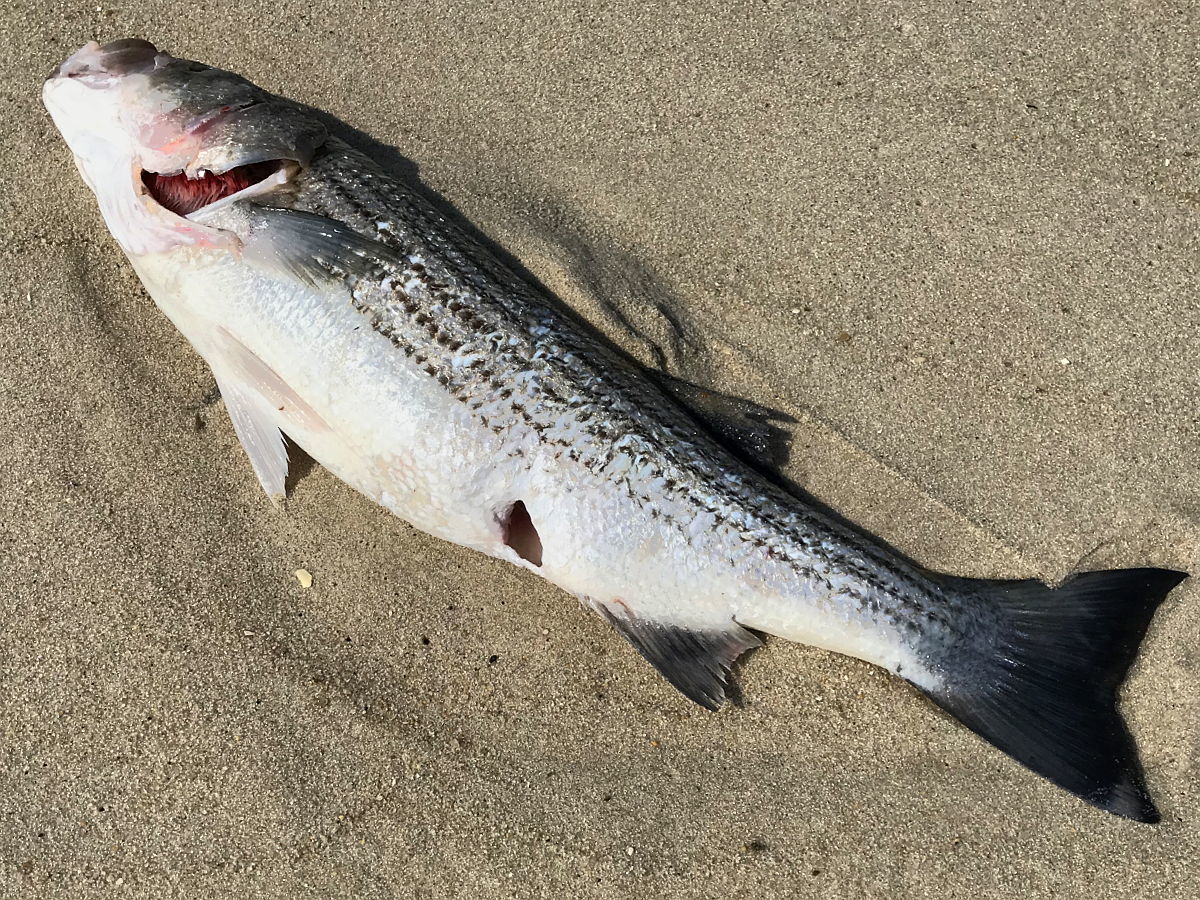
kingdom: Animalia
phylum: Chordata
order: Perciformes
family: Moronidae
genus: Morone
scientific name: Morone saxatilis
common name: Striped bass
